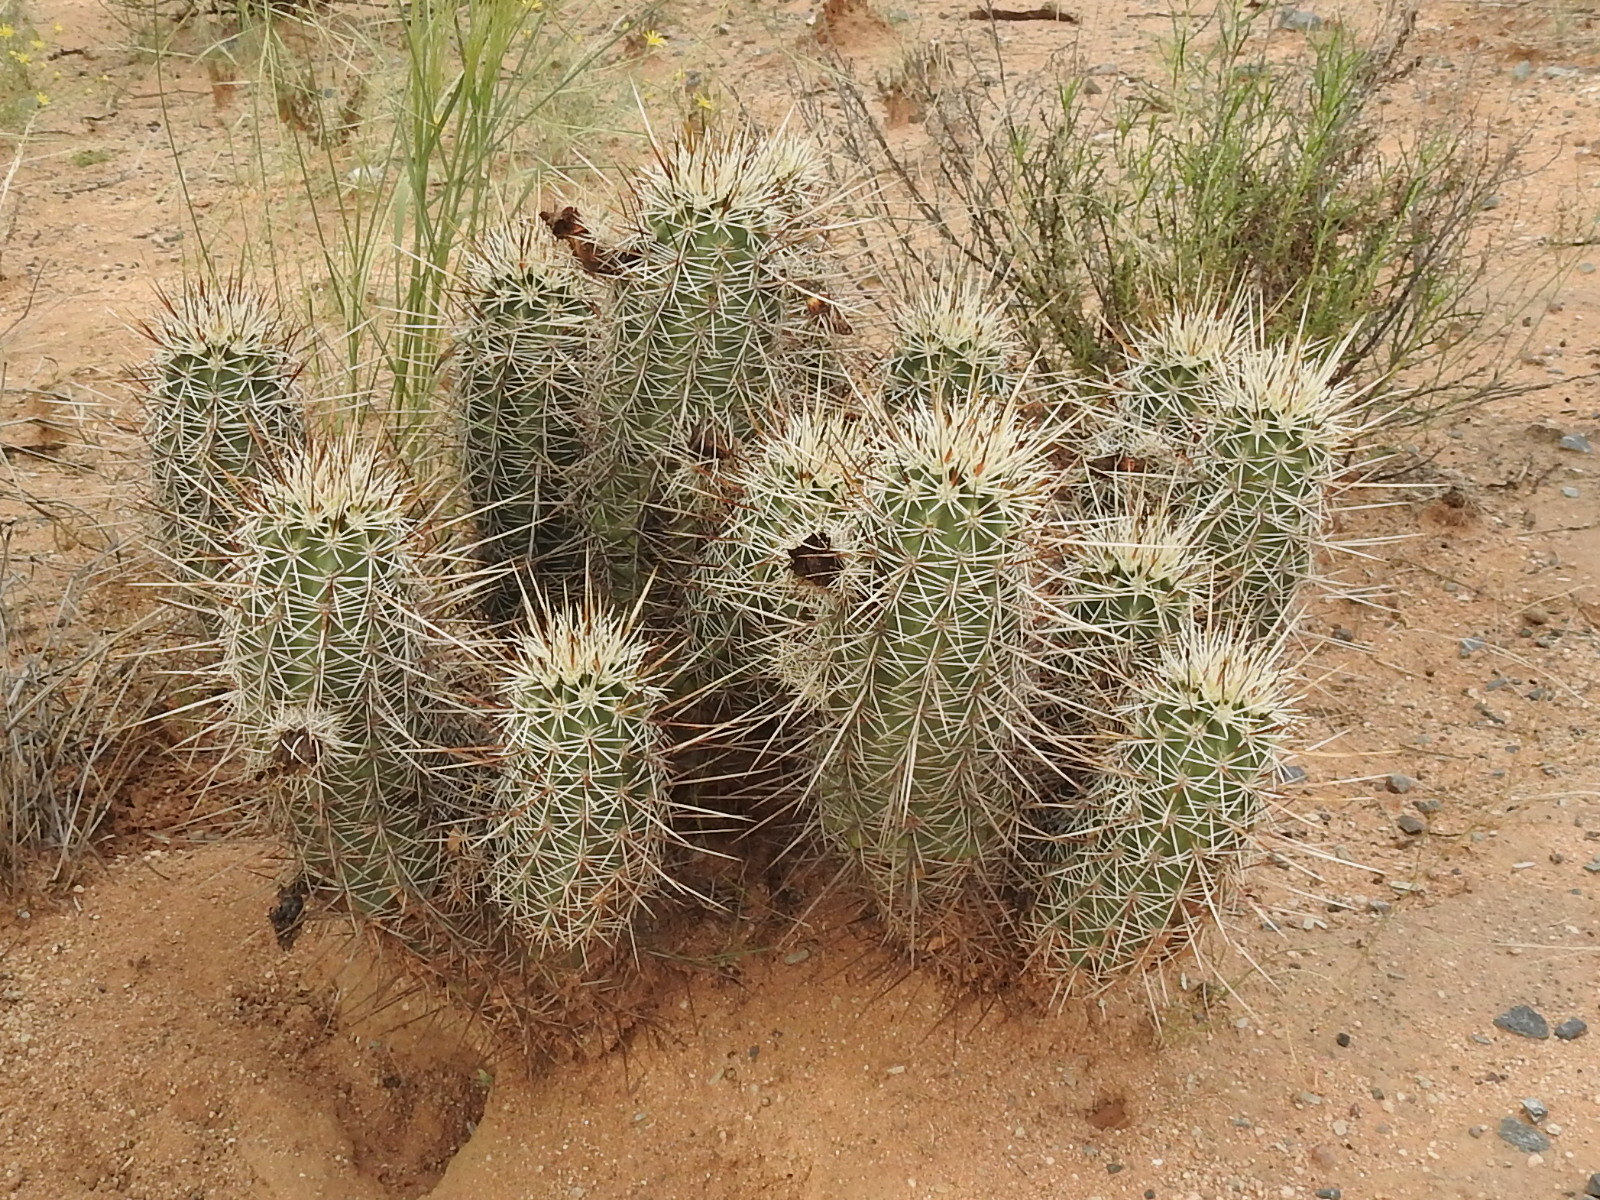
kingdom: Plantae
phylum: Tracheophyta
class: Magnoliopsida
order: Caryophyllales
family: Cactaceae
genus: Echinocereus
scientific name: Echinocereus engelmannii
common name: Engelmann's hedgehog cactus
